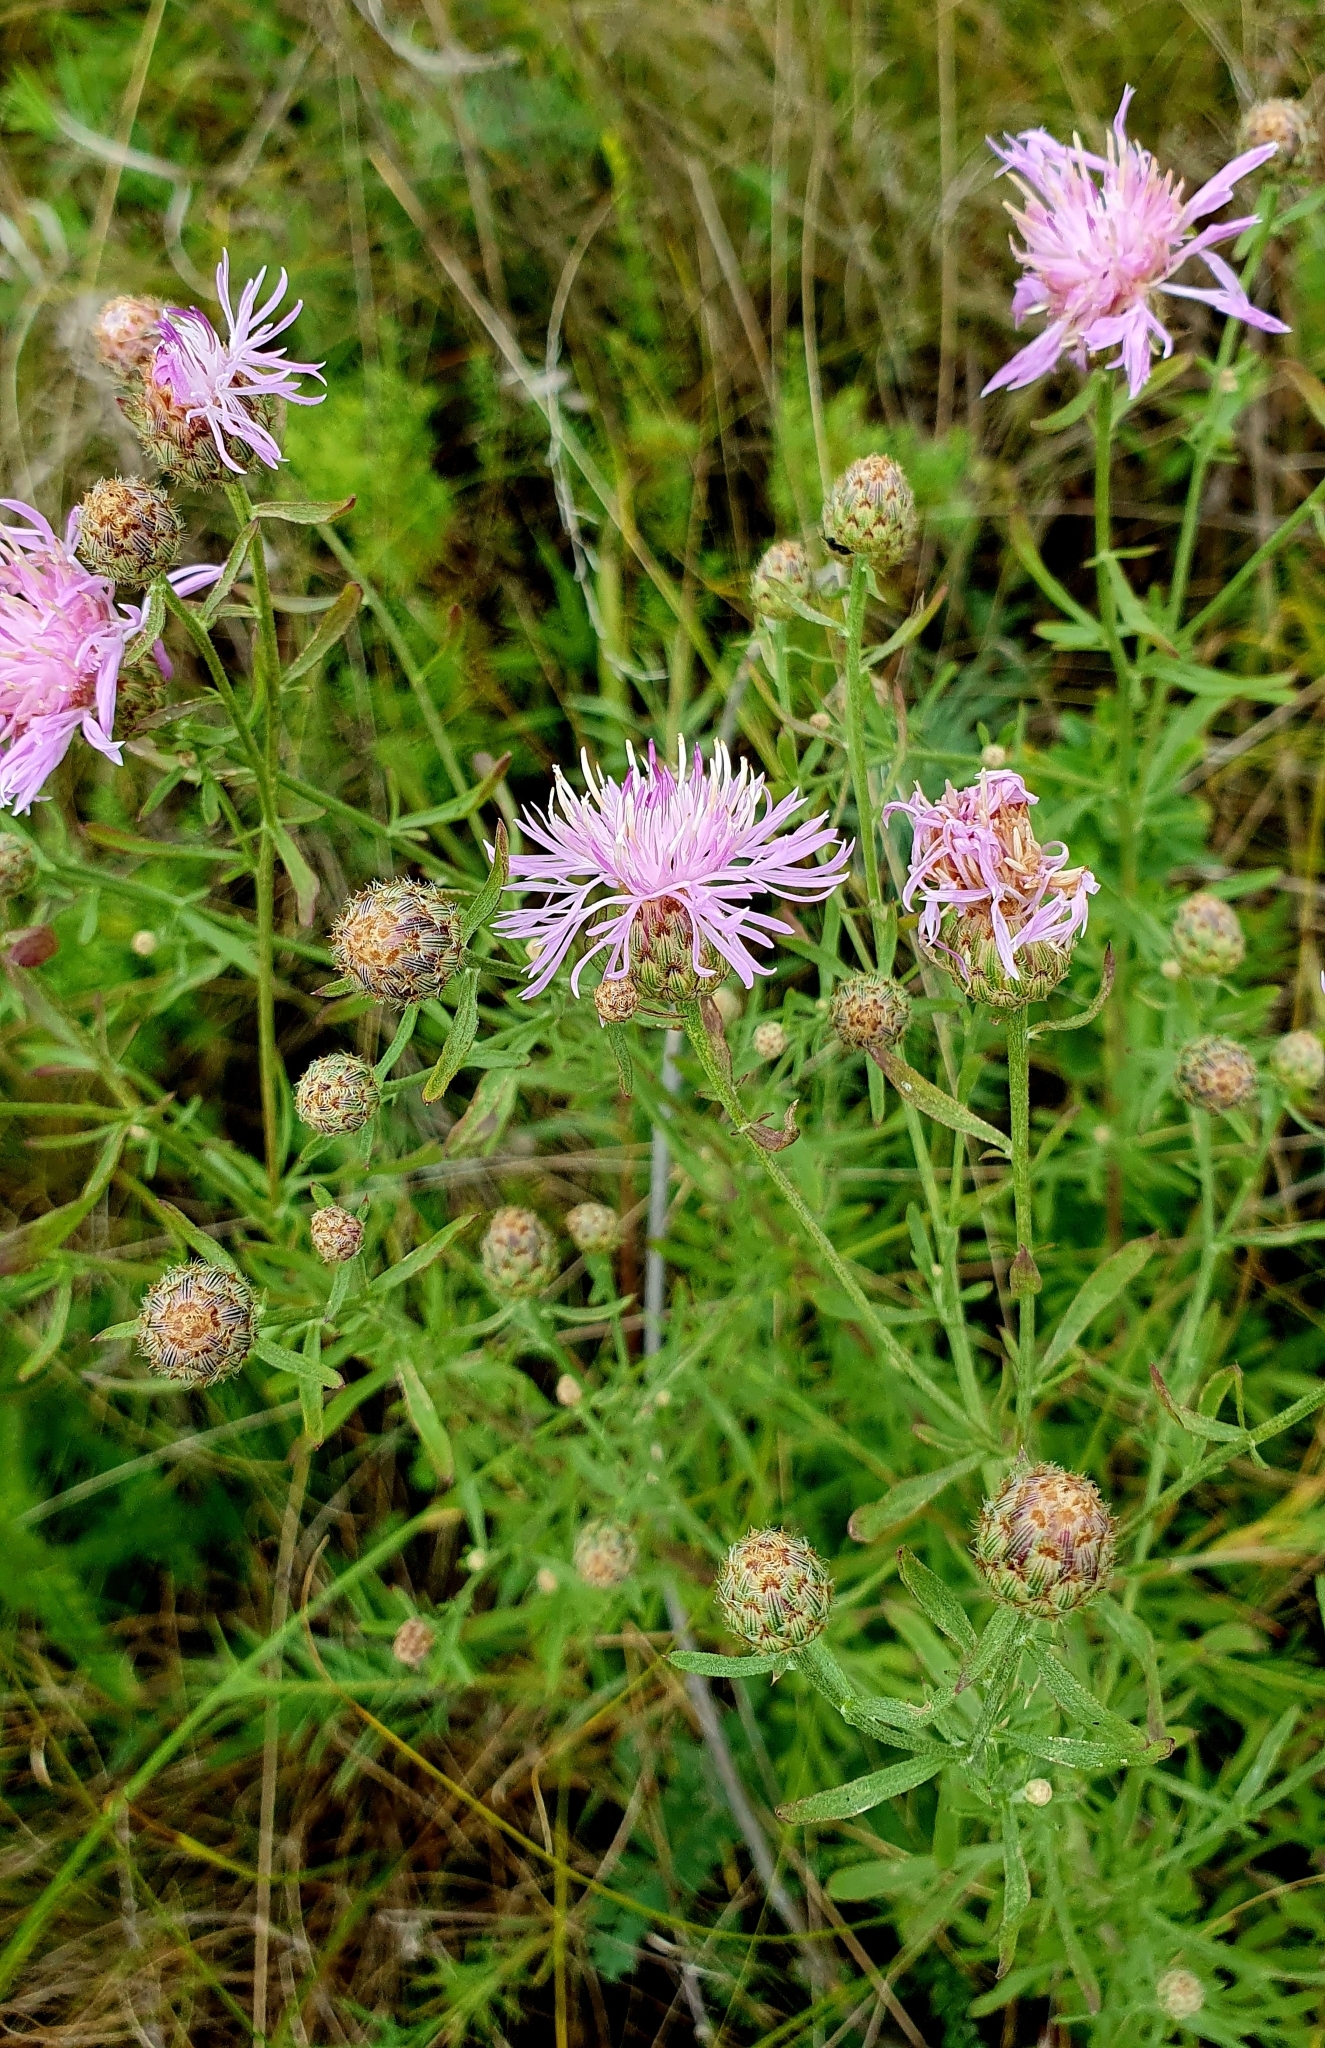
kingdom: Plantae
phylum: Tracheophyta
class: Magnoliopsida
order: Asterales
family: Asteraceae
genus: Centaurea
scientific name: Centaurea stoebe
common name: Spotted knapweed
